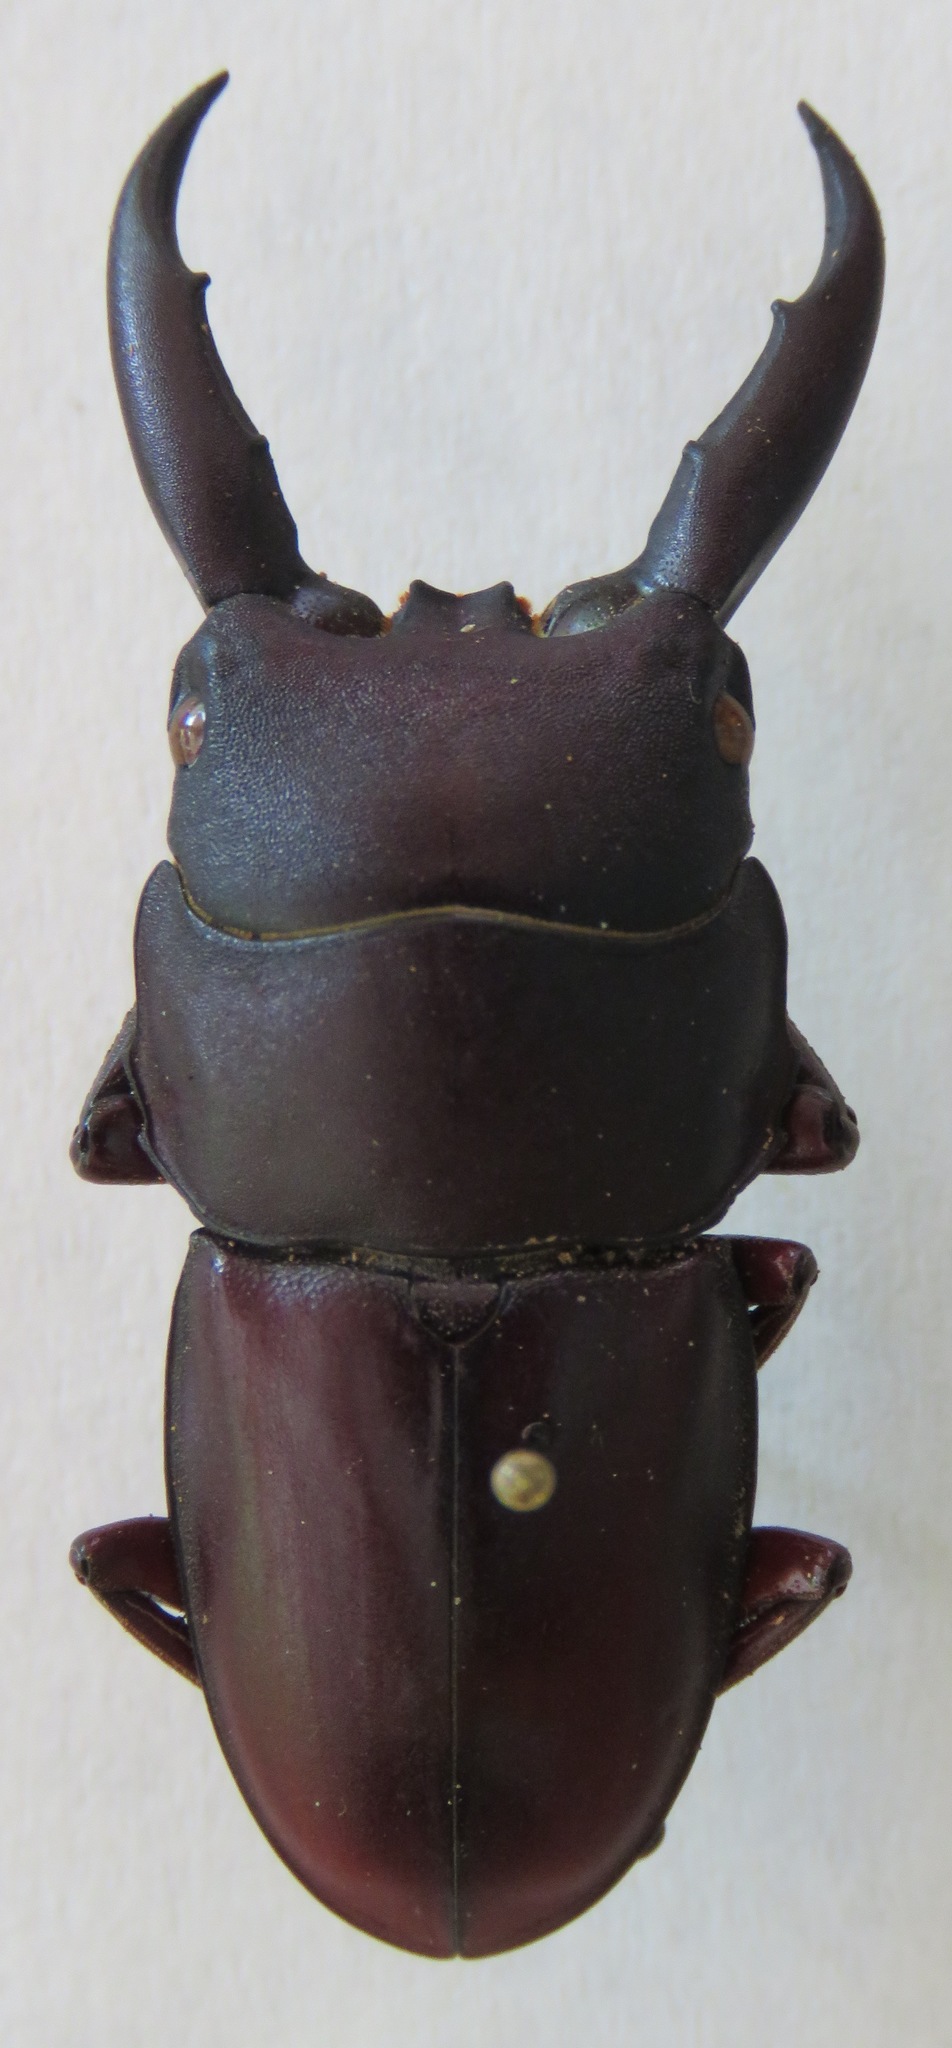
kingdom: Animalia
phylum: Arthropoda
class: Insecta
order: Coleoptera
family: Lucanidae
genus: Dorcus
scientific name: Dorcus saiga
